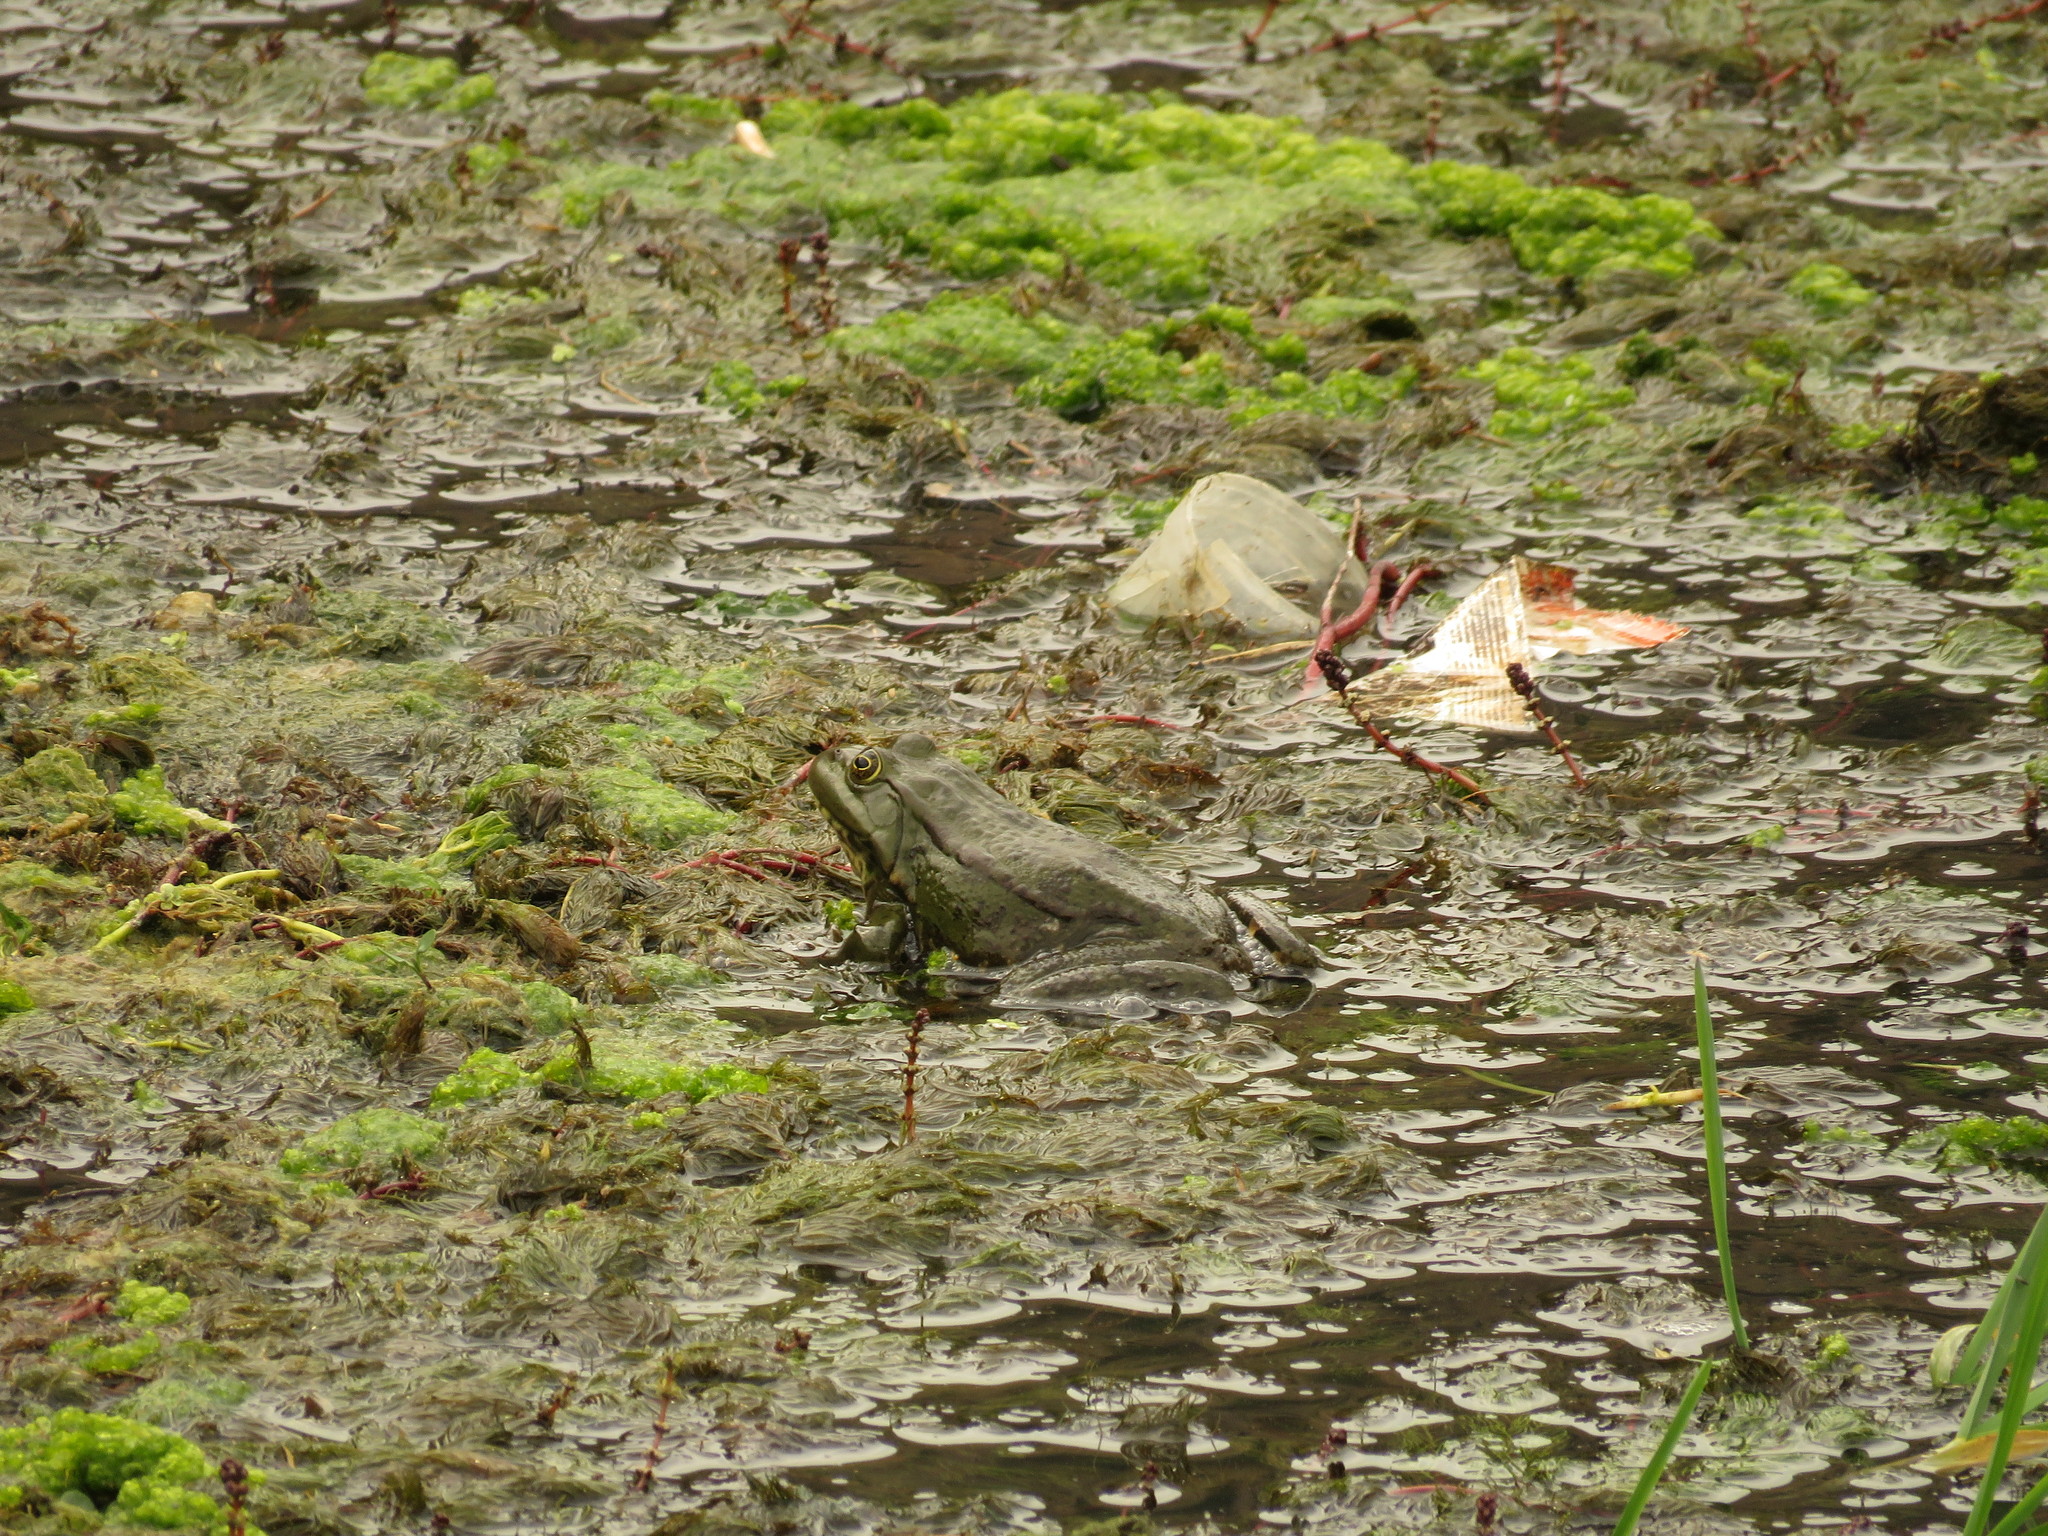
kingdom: Animalia
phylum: Chordata
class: Amphibia
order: Anura
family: Ranidae
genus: Pelophylax
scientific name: Pelophylax ridibundus
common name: Marsh frog
